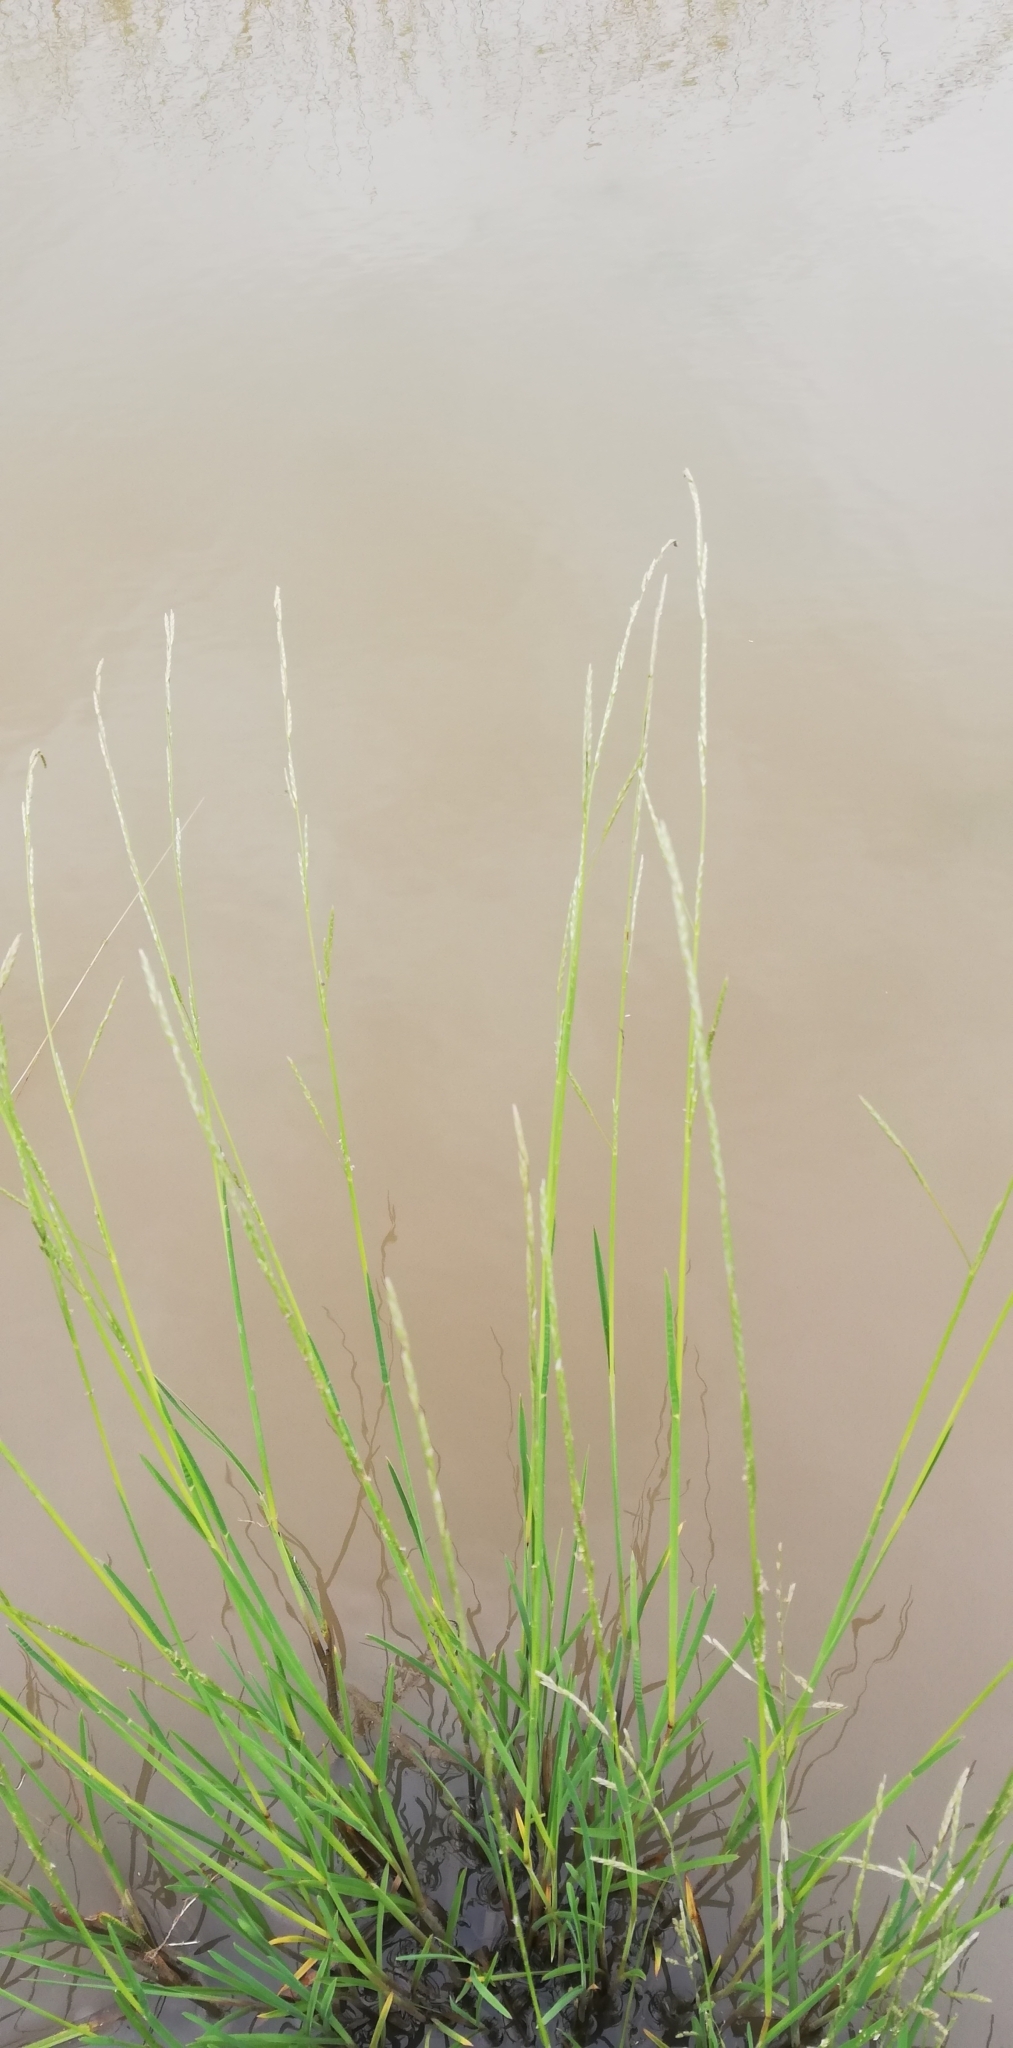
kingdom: Plantae
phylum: Tracheophyta
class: Liliopsida
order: Poales
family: Poaceae
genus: Glyceria
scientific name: Glyceria fluitans
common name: Floating sweet-grass
